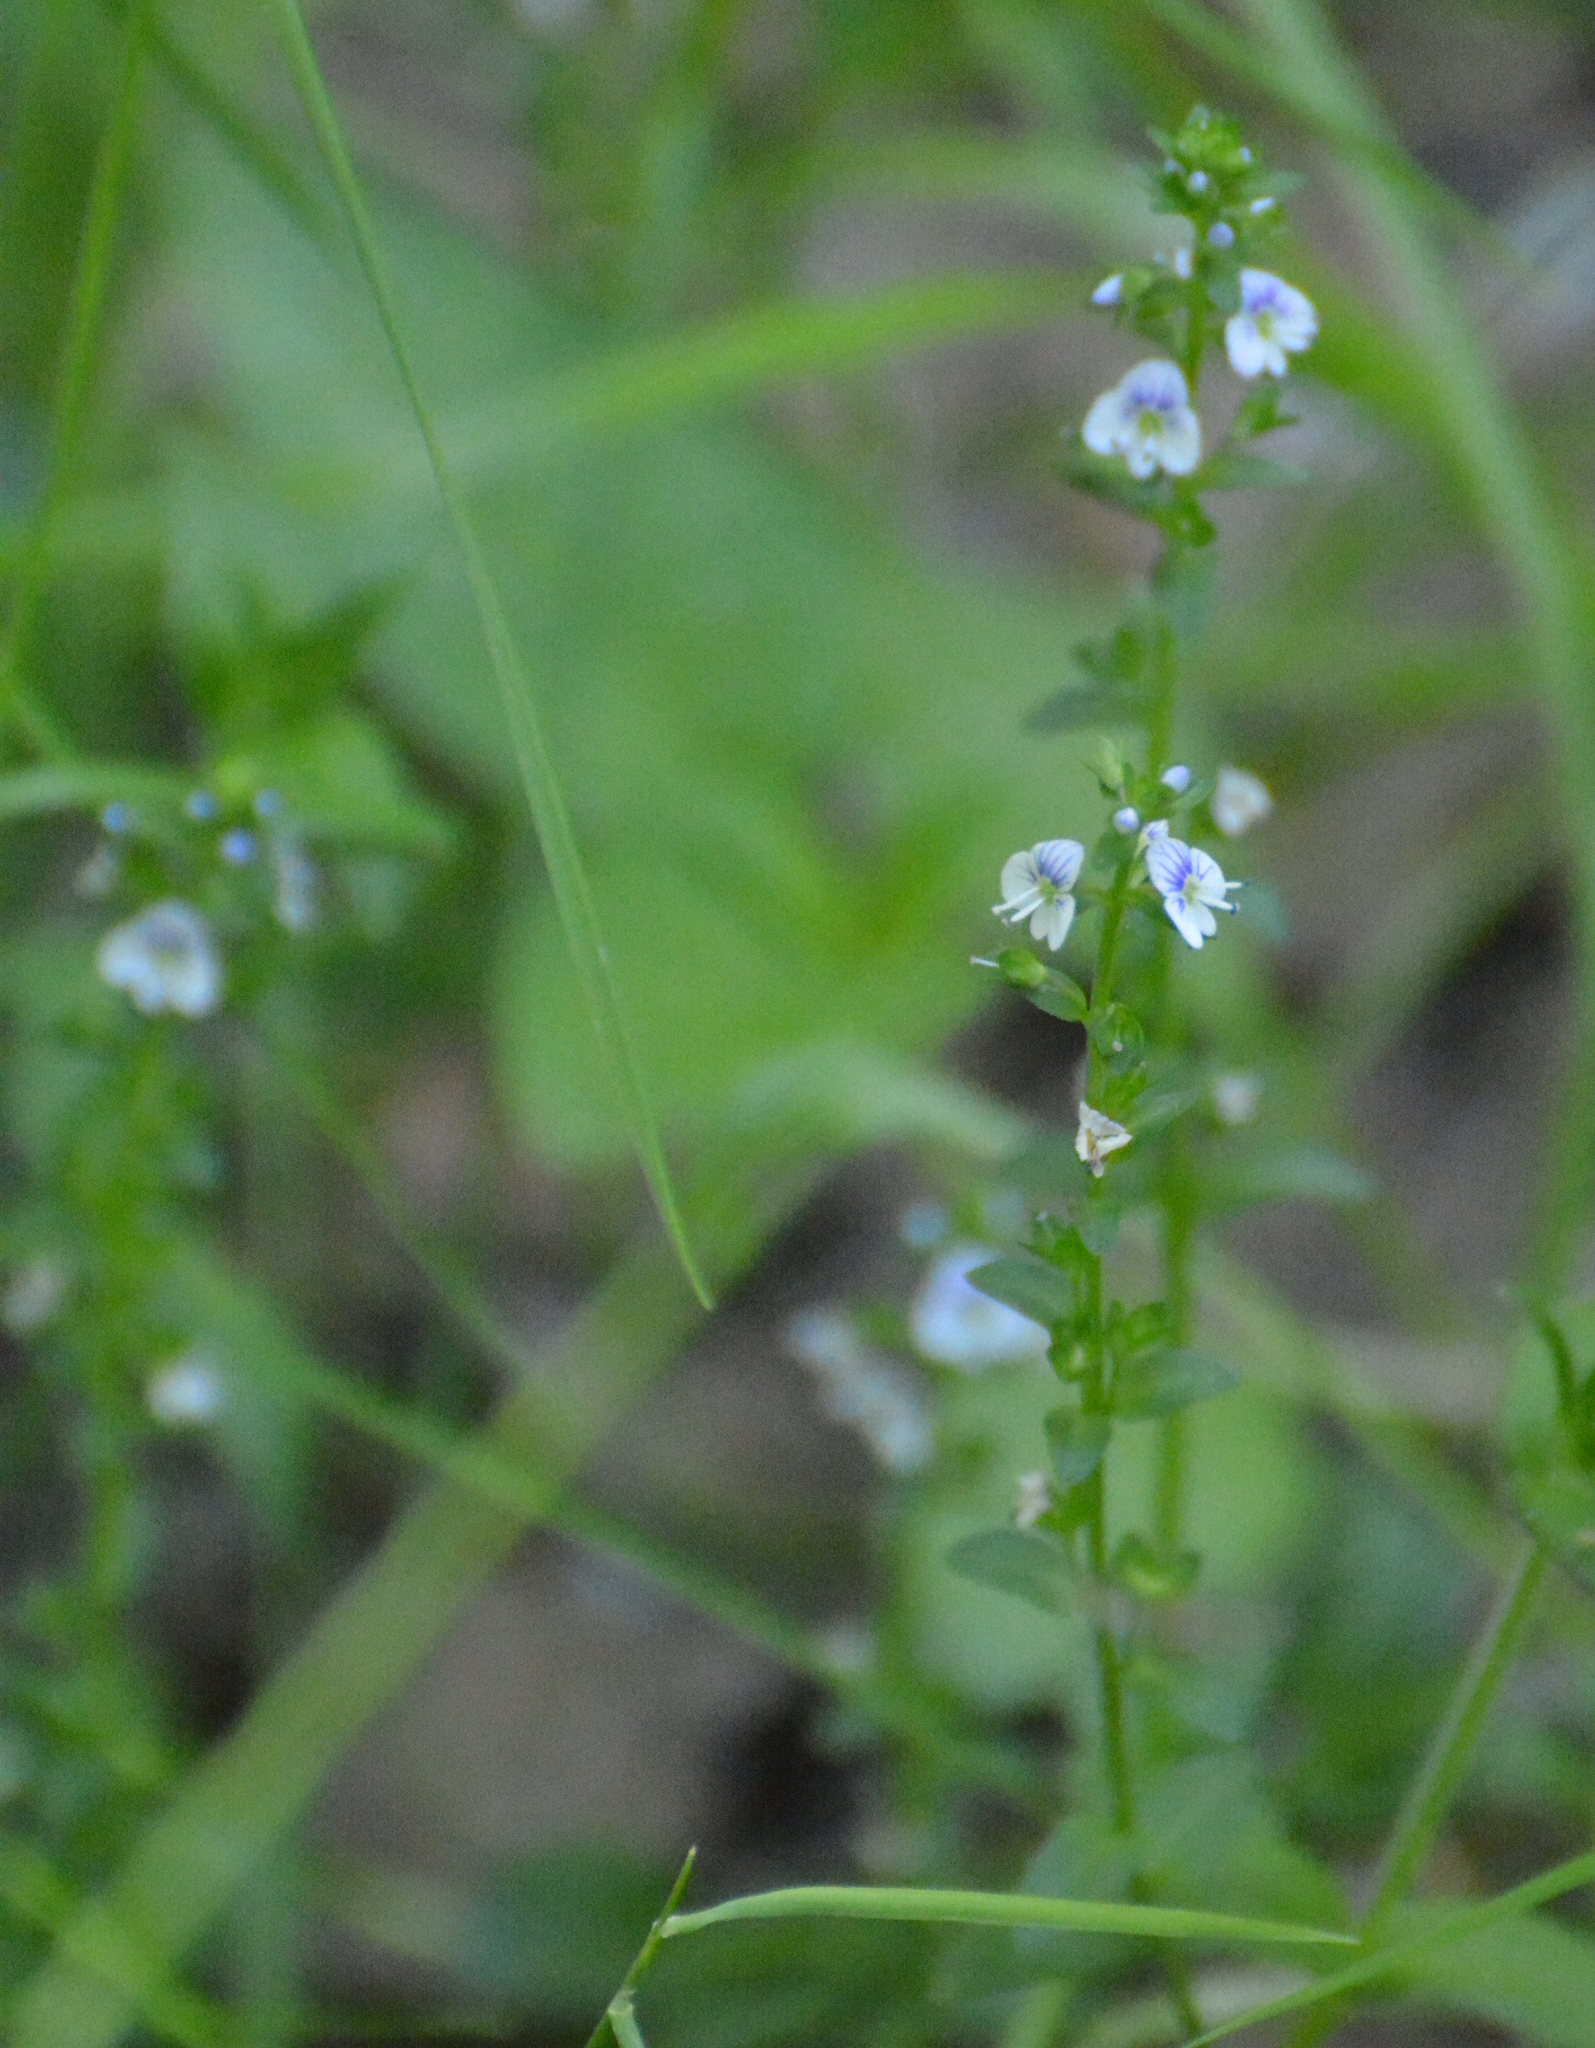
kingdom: Plantae
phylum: Tracheophyta
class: Magnoliopsida
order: Lamiales
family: Plantaginaceae
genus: Veronica
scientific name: Veronica serpyllifolia
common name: Thyme-leaved speedwell
